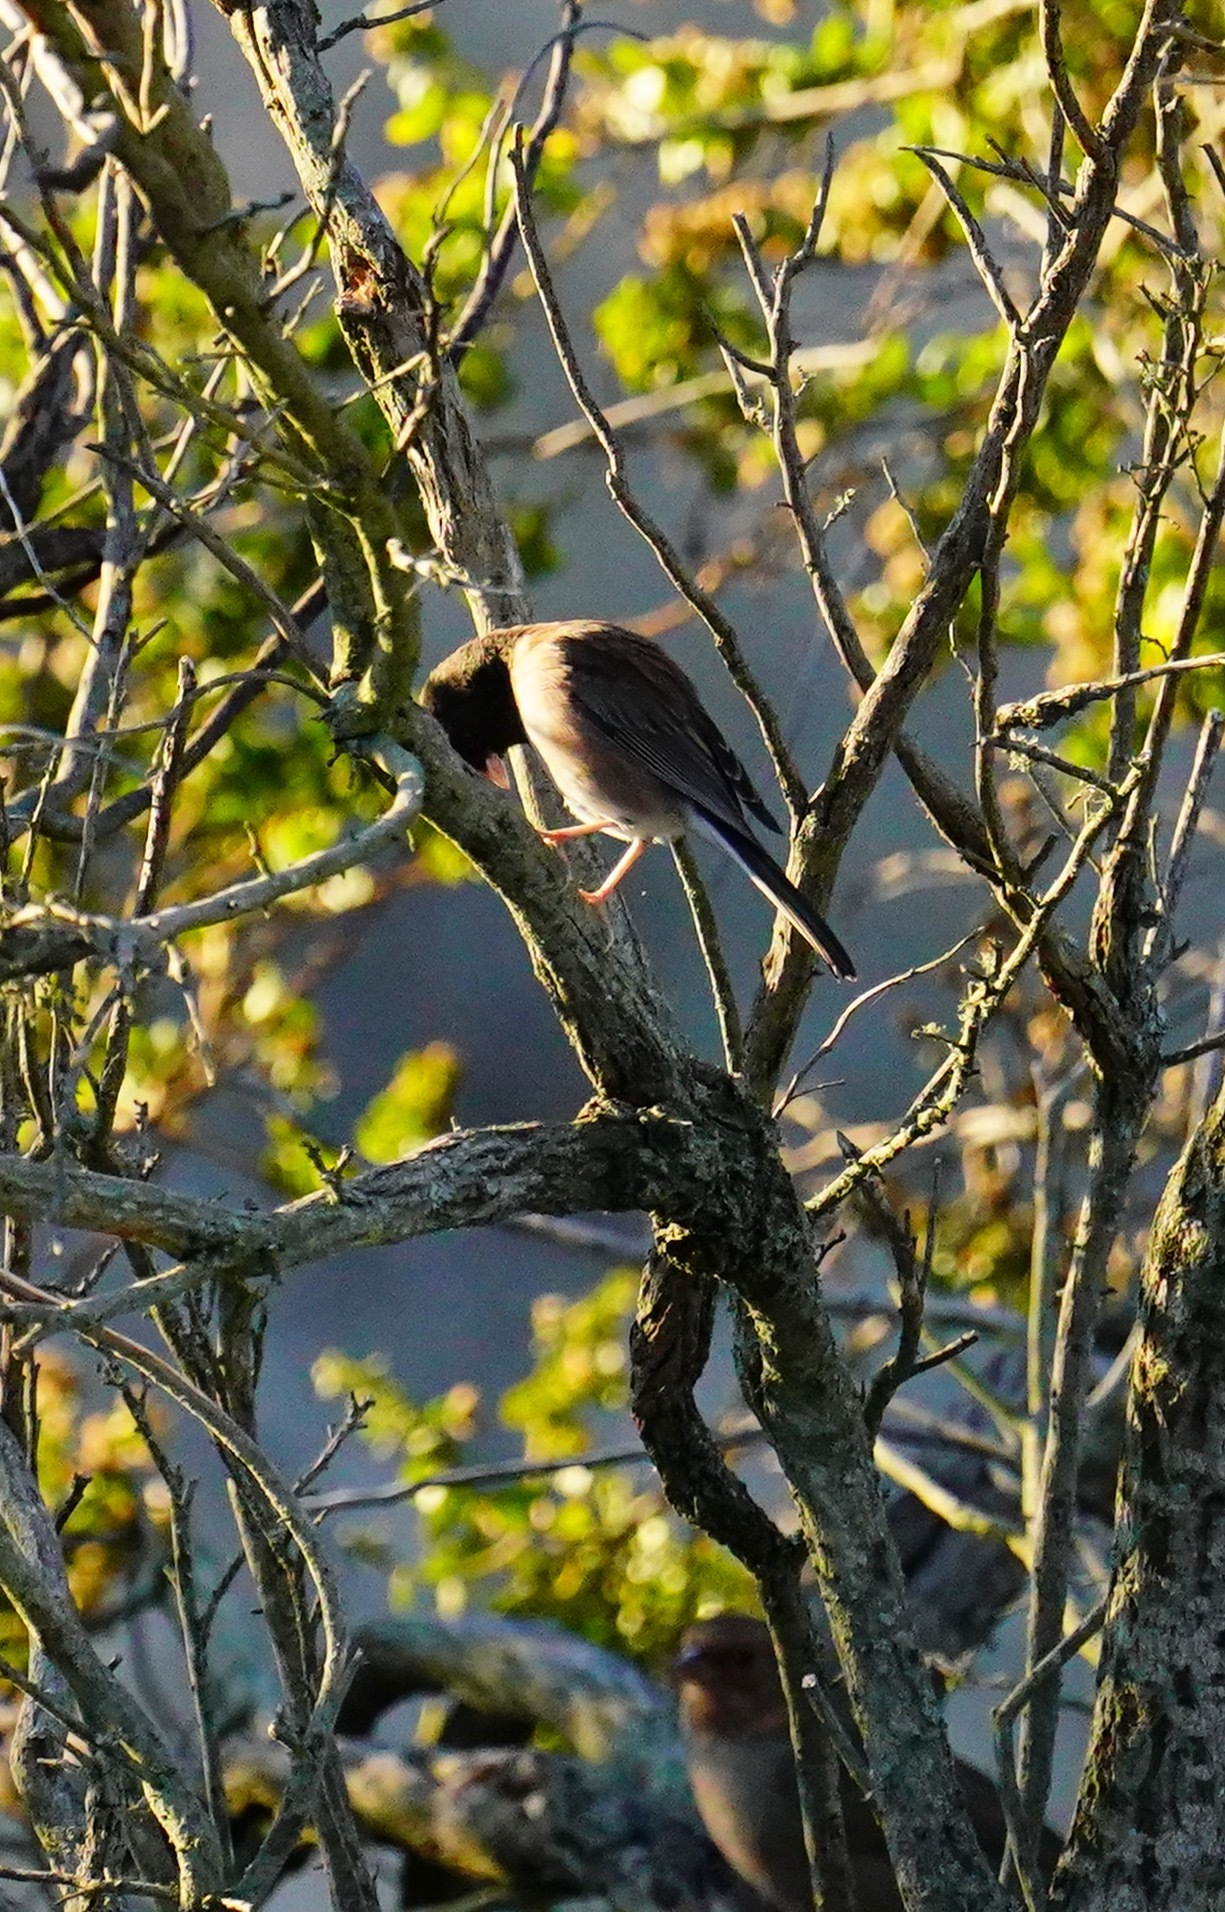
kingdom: Animalia
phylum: Chordata
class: Aves
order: Passeriformes
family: Passerellidae
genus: Junco
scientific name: Junco hyemalis
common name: Dark-eyed junco
